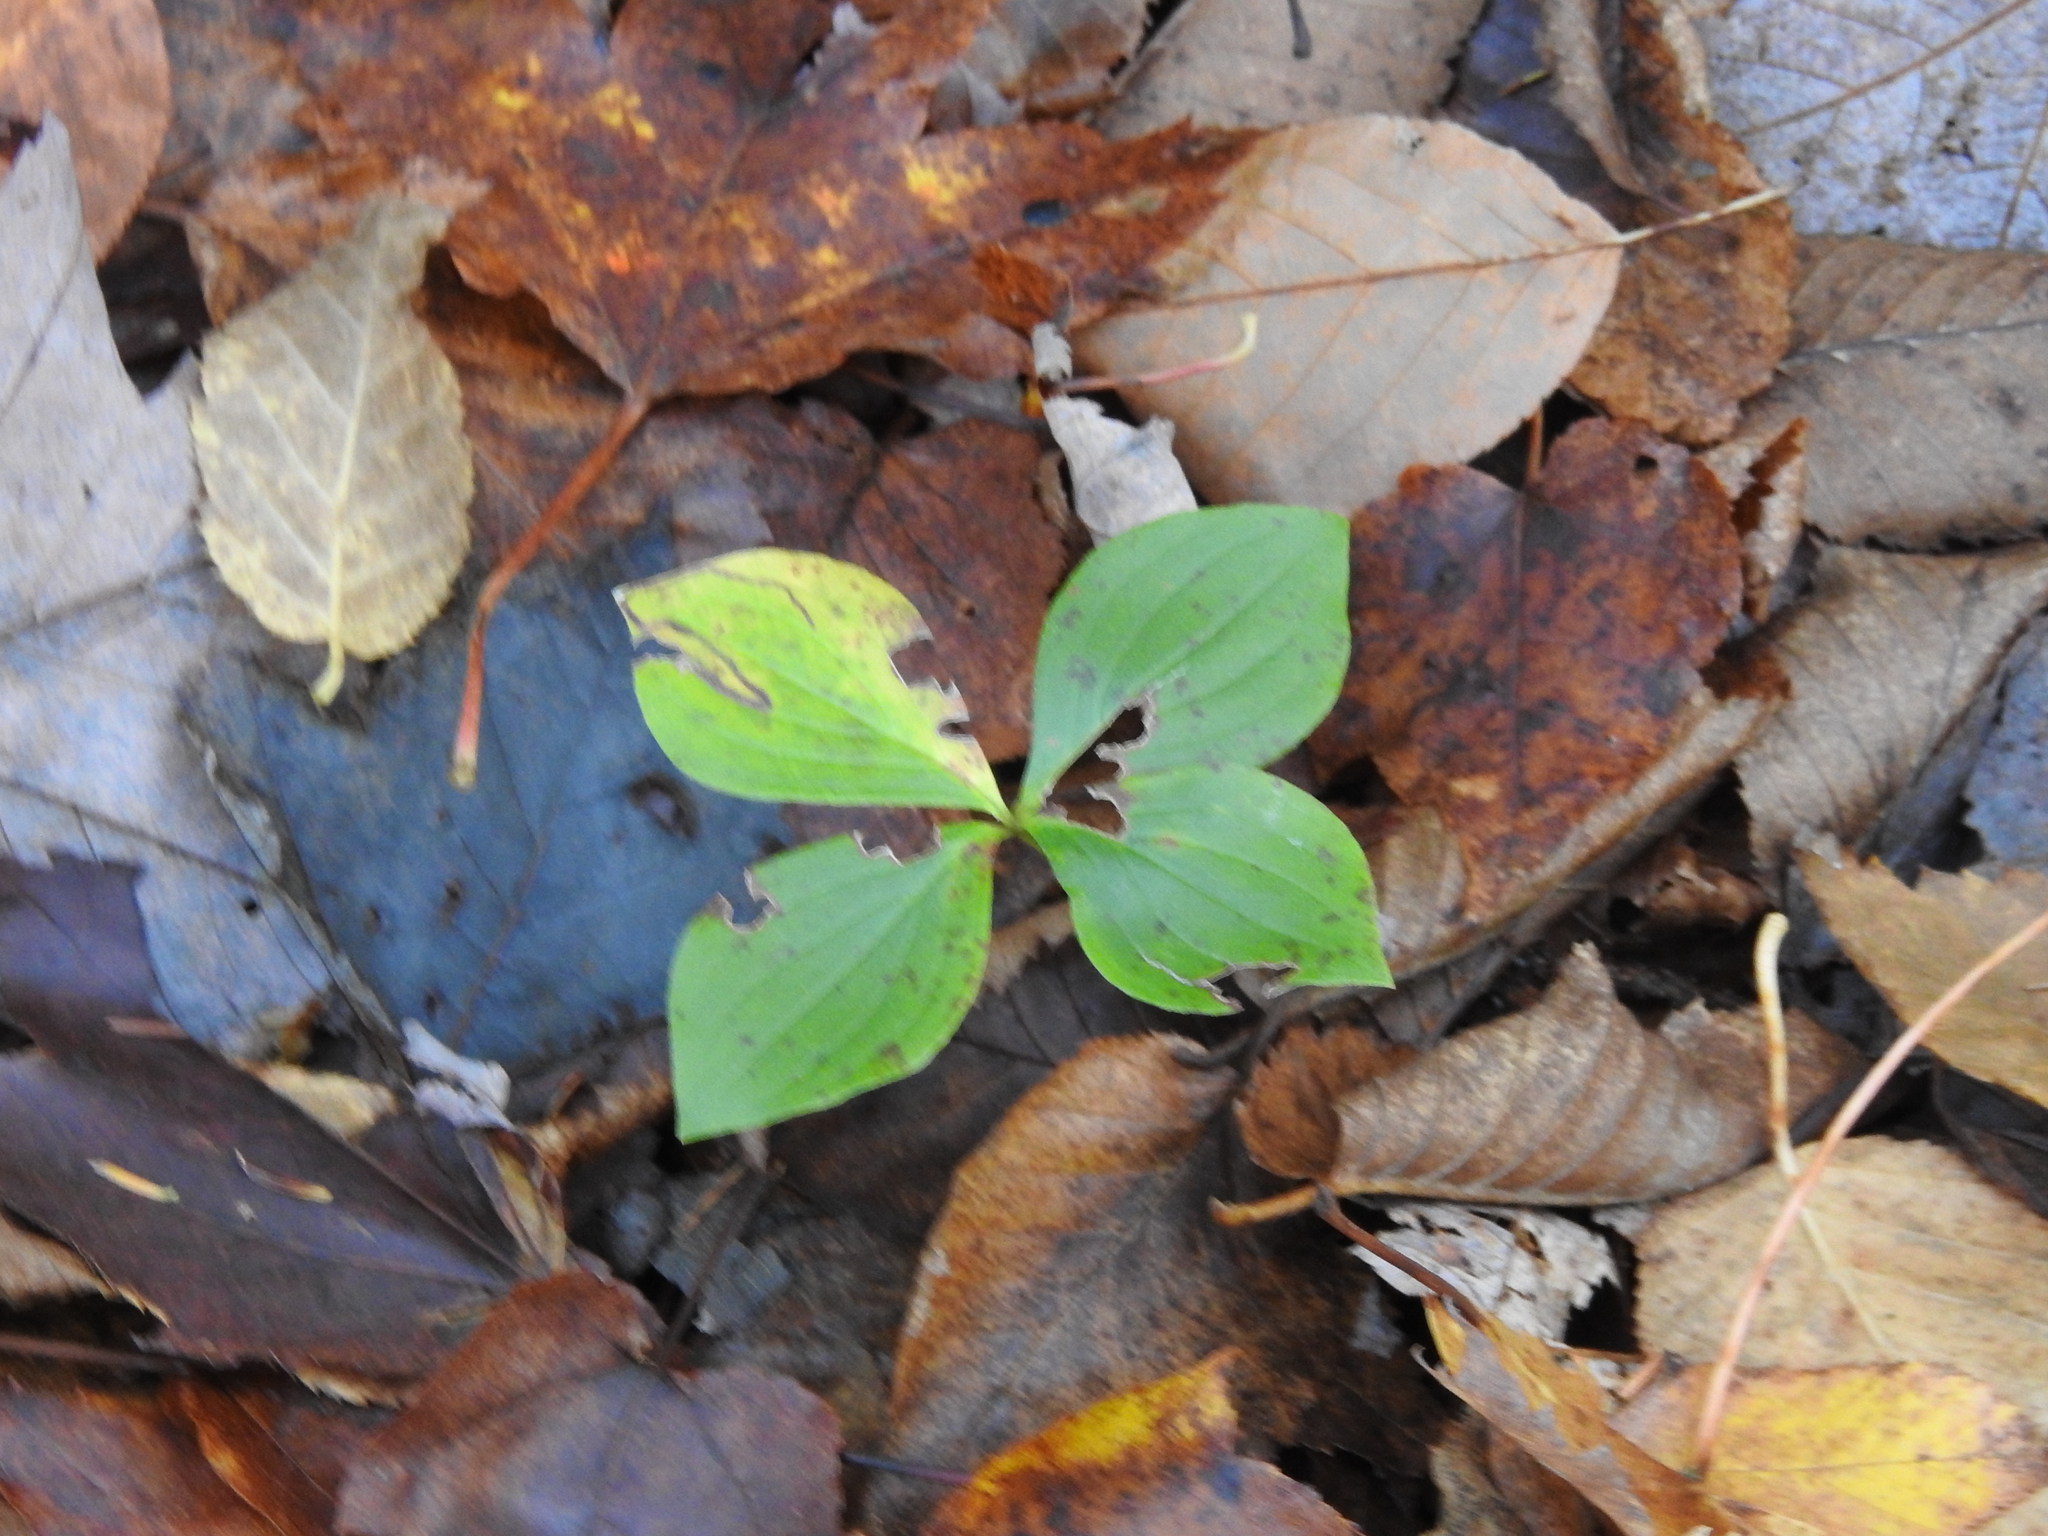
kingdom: Plantae
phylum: Tracheophyta
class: Magnoliopsida
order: Cornales
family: Cornaceae
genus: Cornus
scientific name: Cornus canadensis
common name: Creeping dogwood
